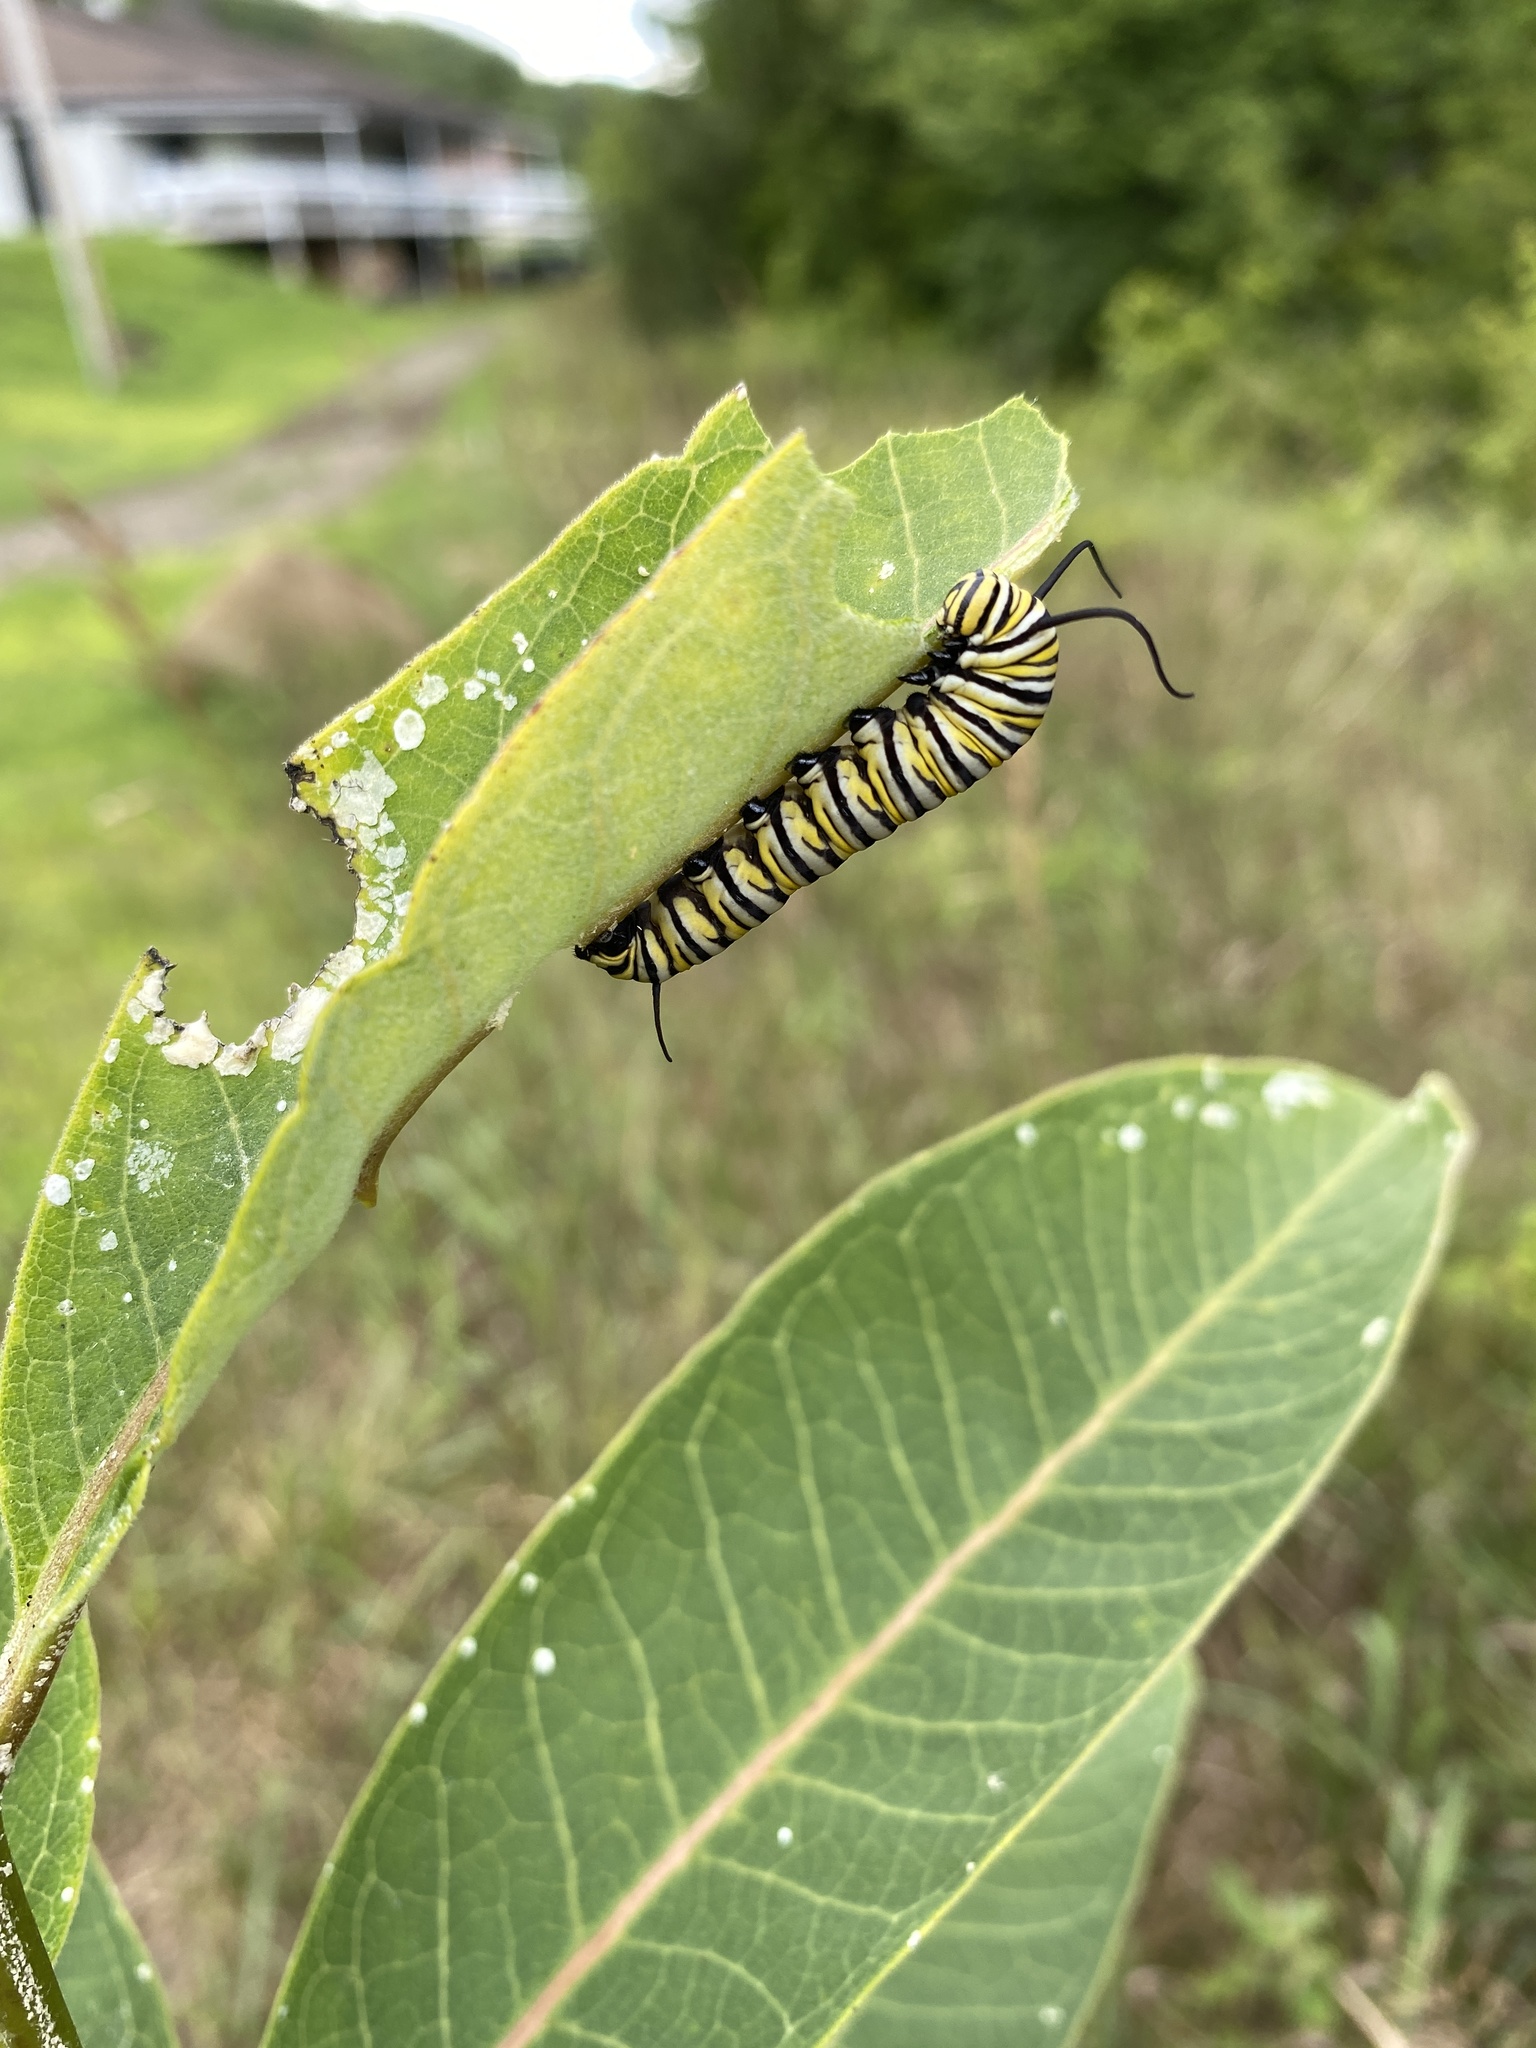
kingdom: Animalia
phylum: Arthropoda
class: Insecta
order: Lepidoptera
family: Nymphalidae
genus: Danaus
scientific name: Danaus plexippus
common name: Monarch
